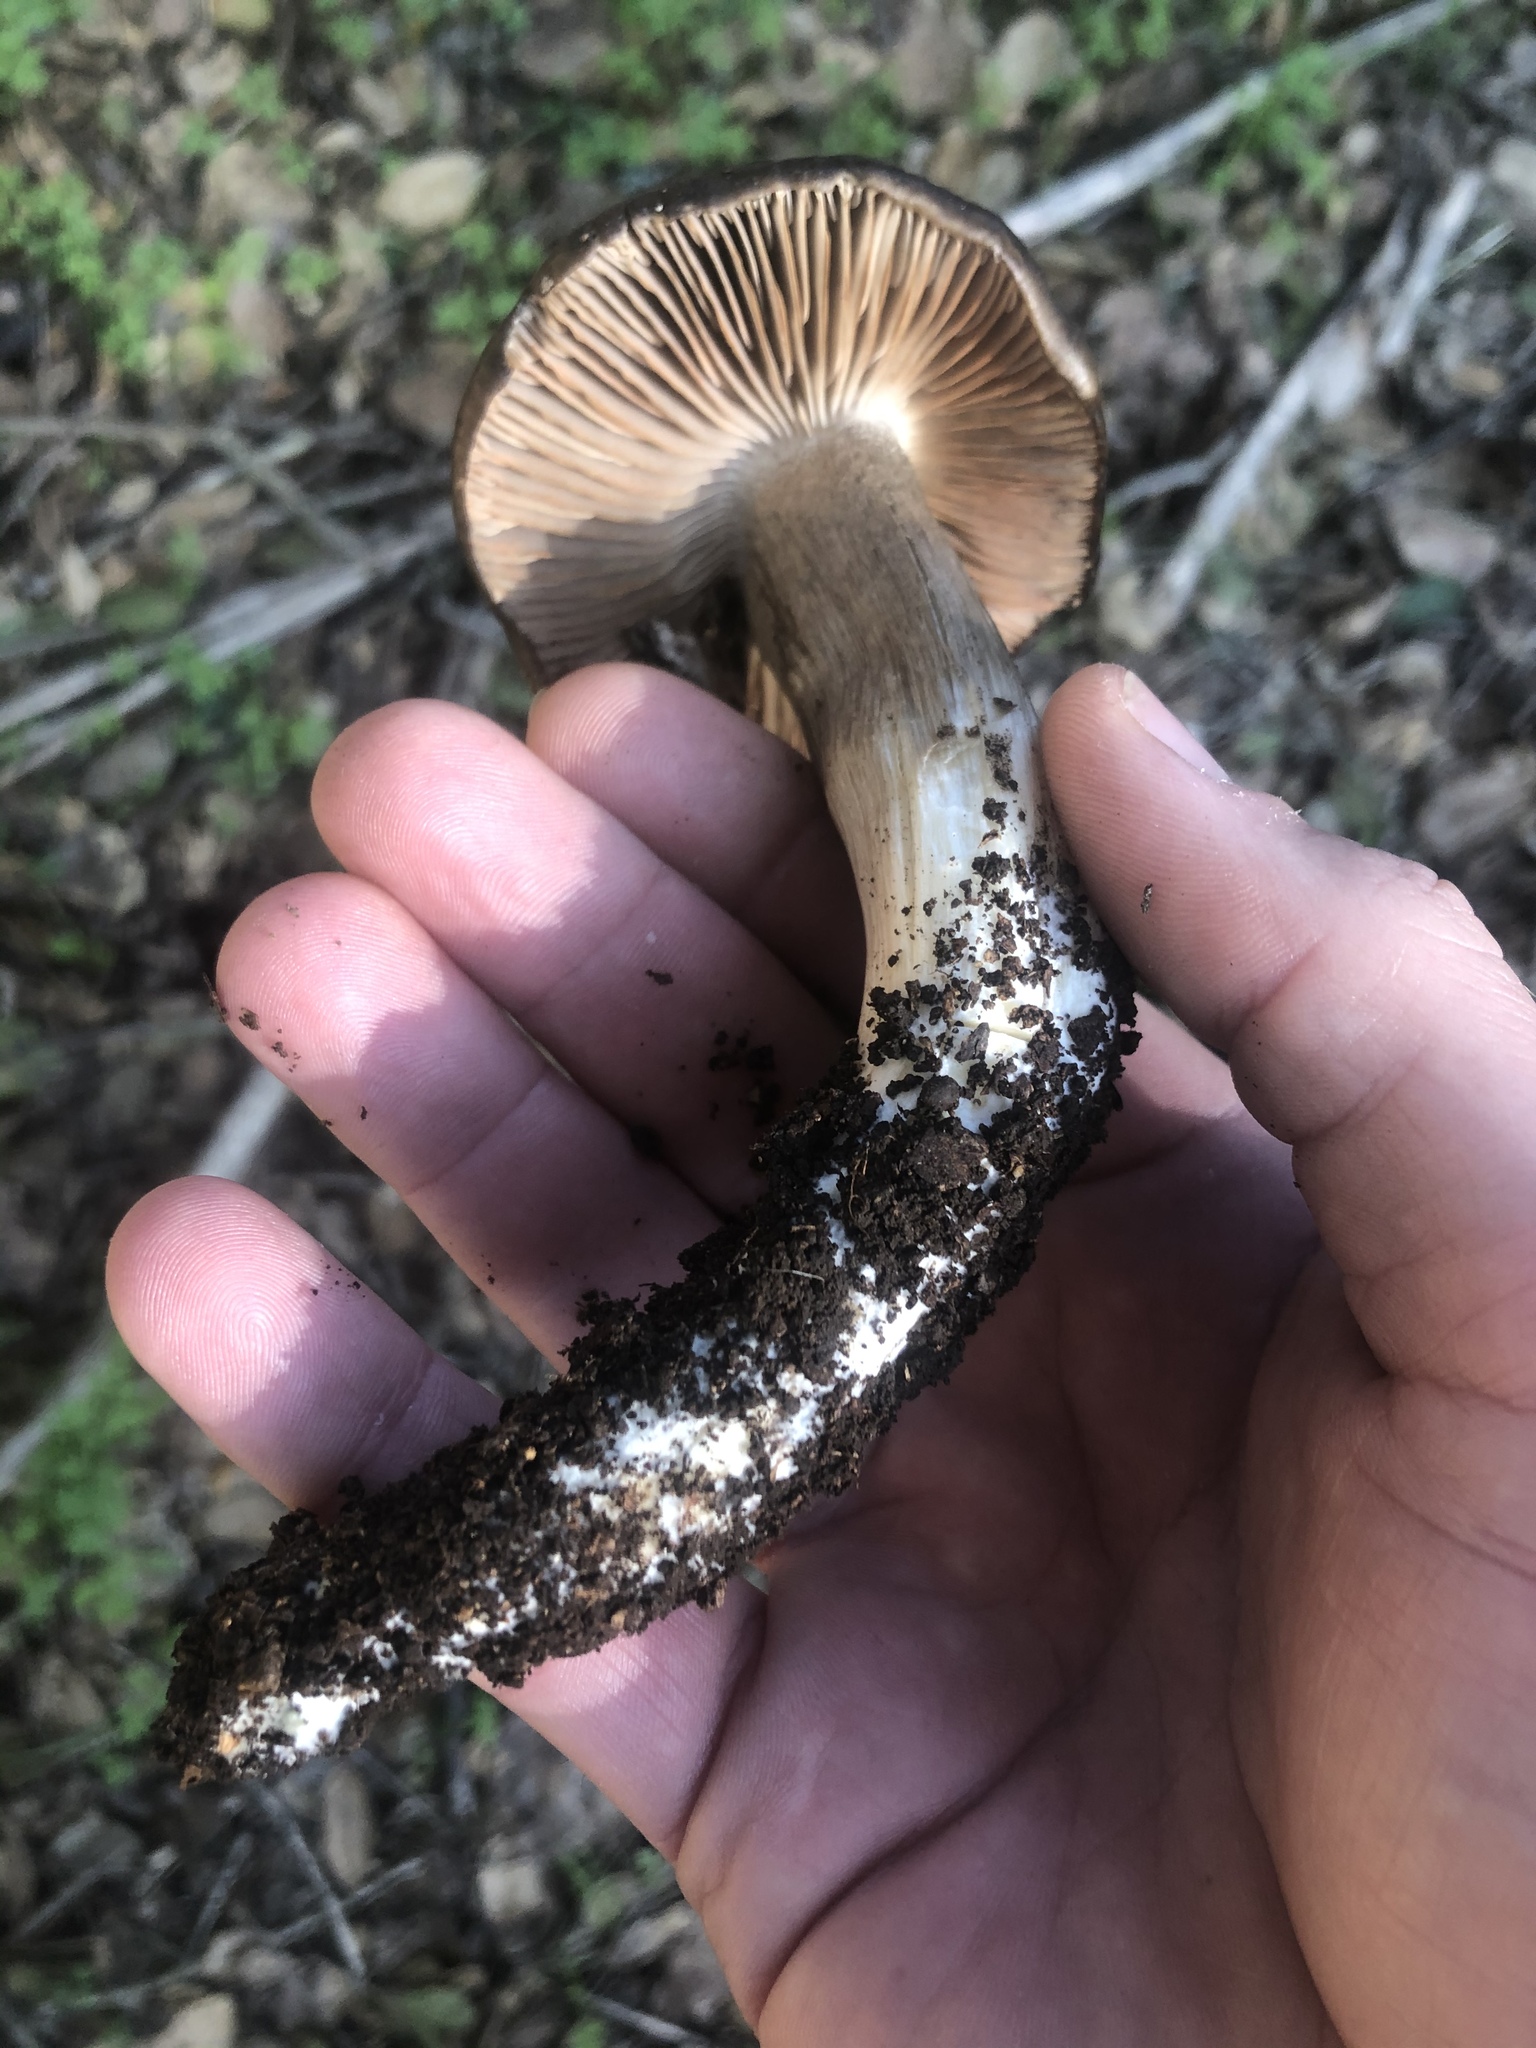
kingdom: Fungi
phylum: Basidiomycota
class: Agaricomycetes
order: Agaricales
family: Entolomataceae
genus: Entoloma
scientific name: Entoloma ferruginans
